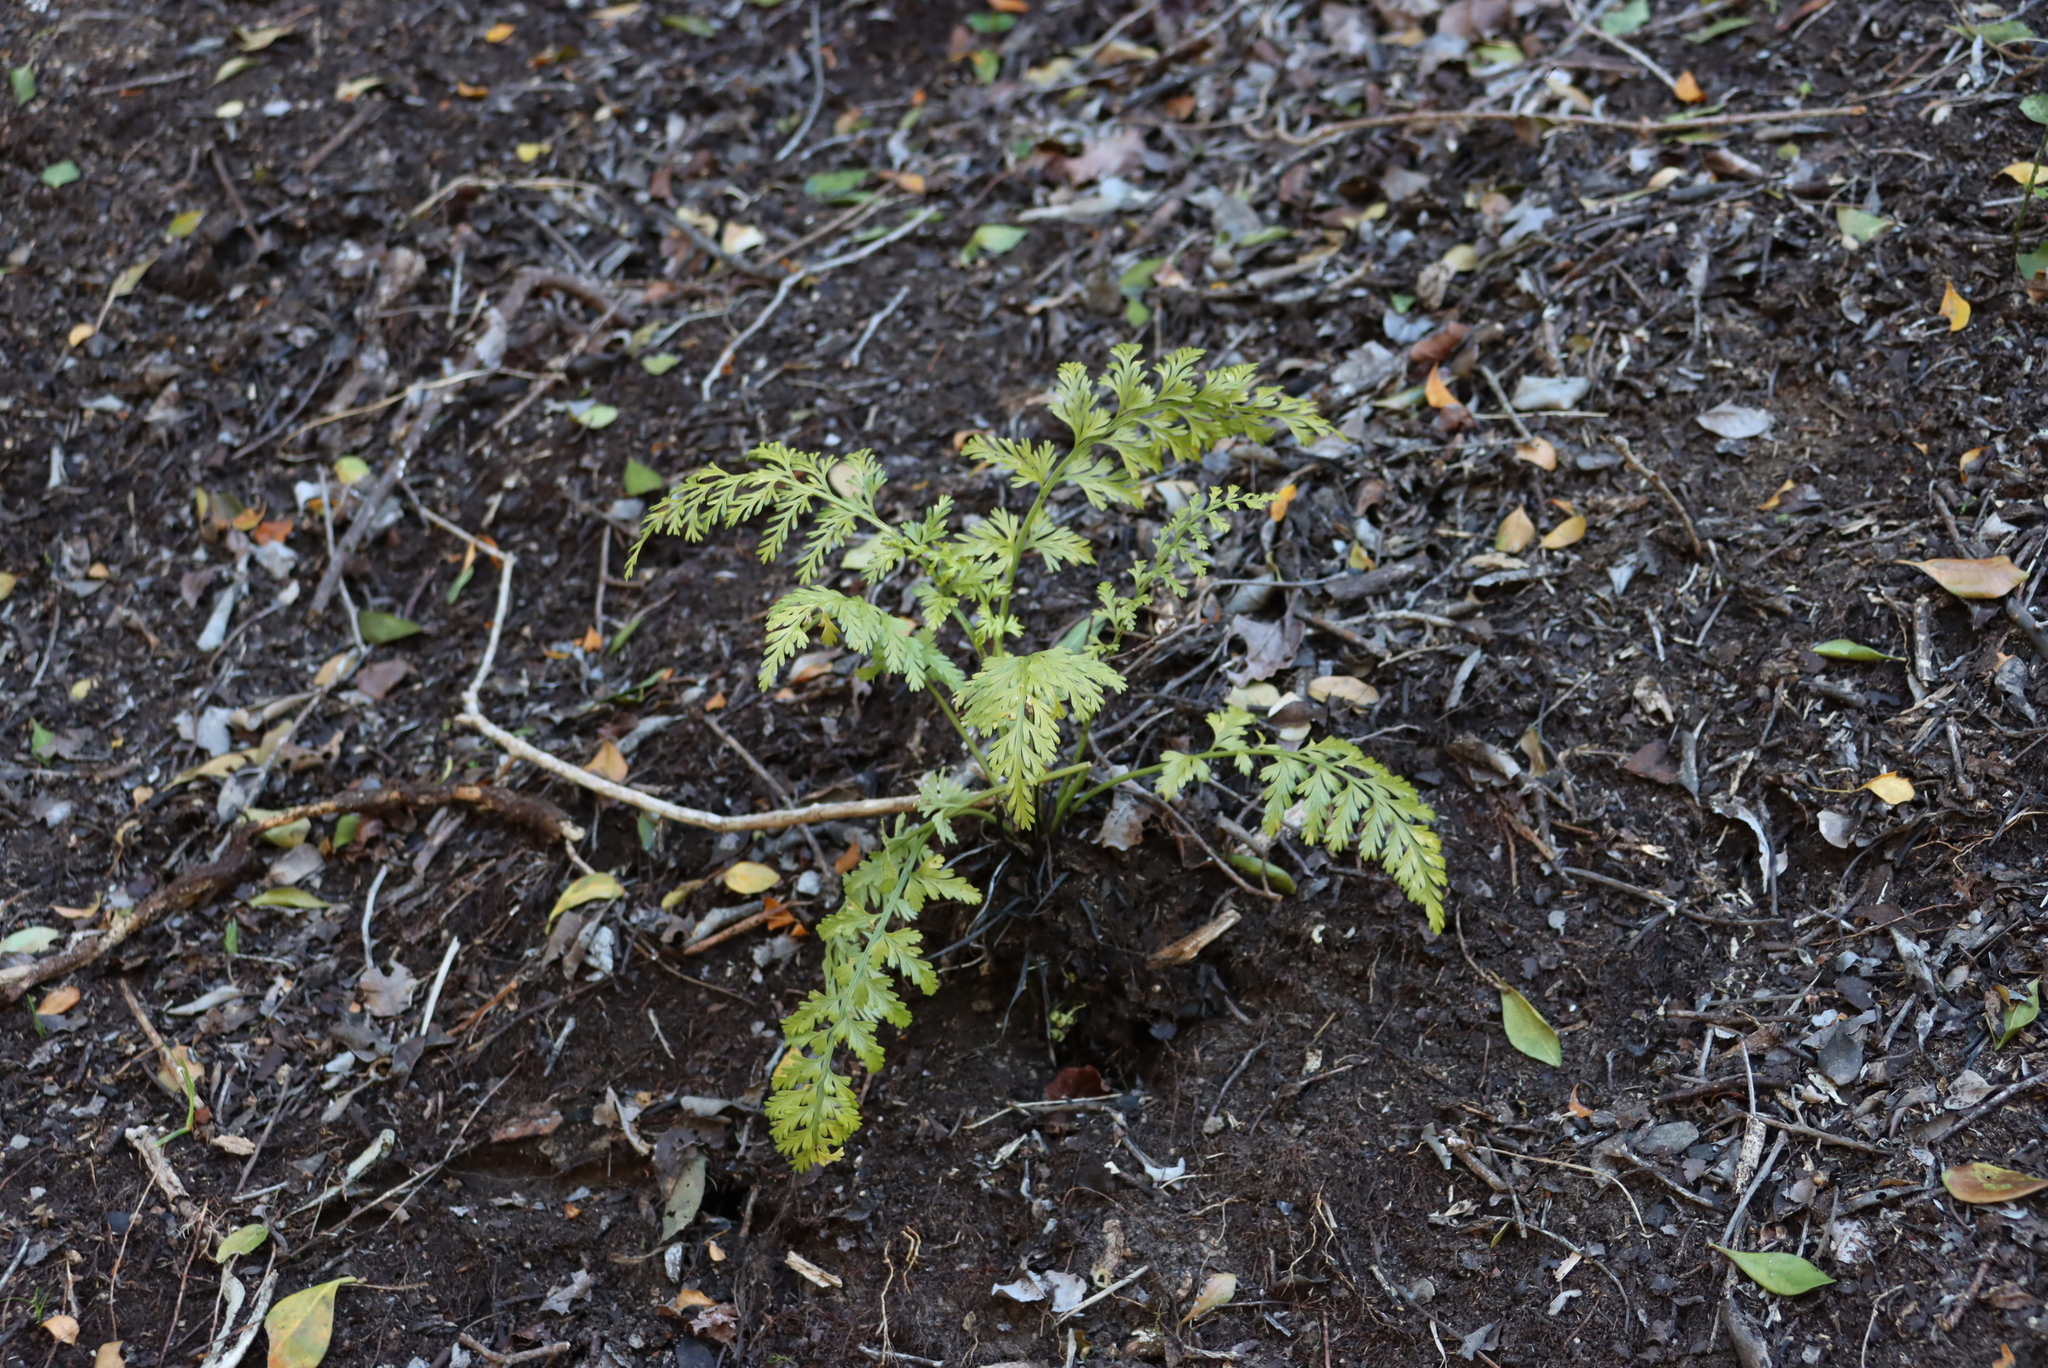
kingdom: Plantae
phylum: Tracheophyta
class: Polypodiopsida
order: Polypodiales
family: Aspleniaceae
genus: Asplenium
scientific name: Asplenium rutifolium
